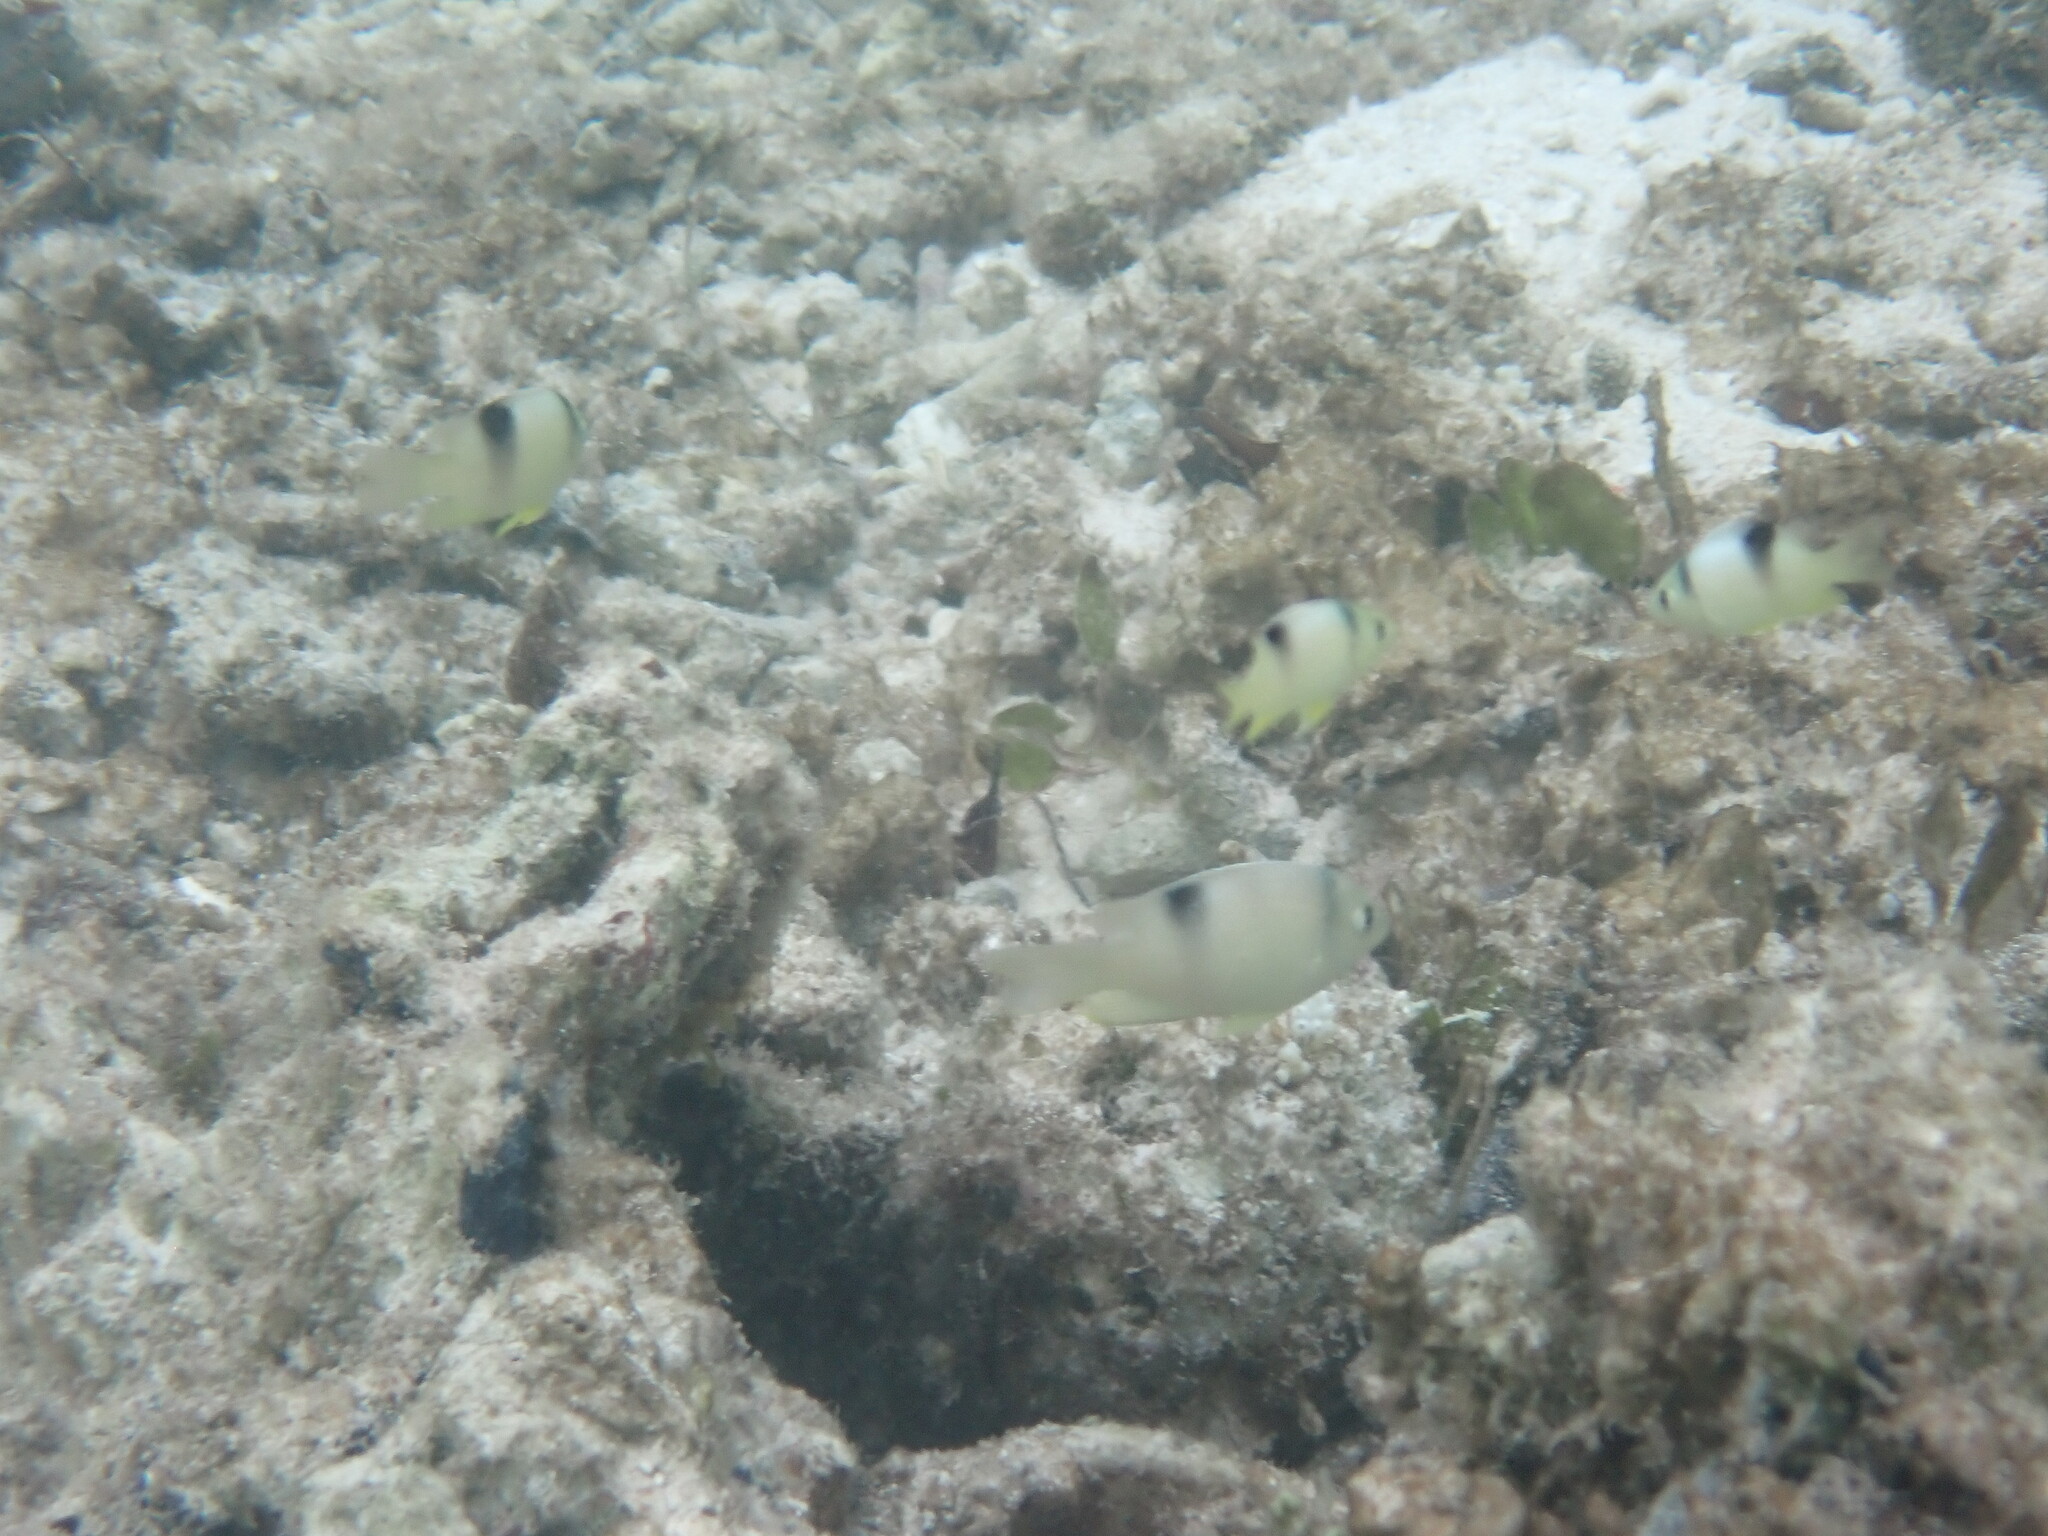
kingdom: Animalia
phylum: Chordata
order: Perciformes
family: Pomacentridae
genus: Dischistodus
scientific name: Dischistodus perspicillatus
